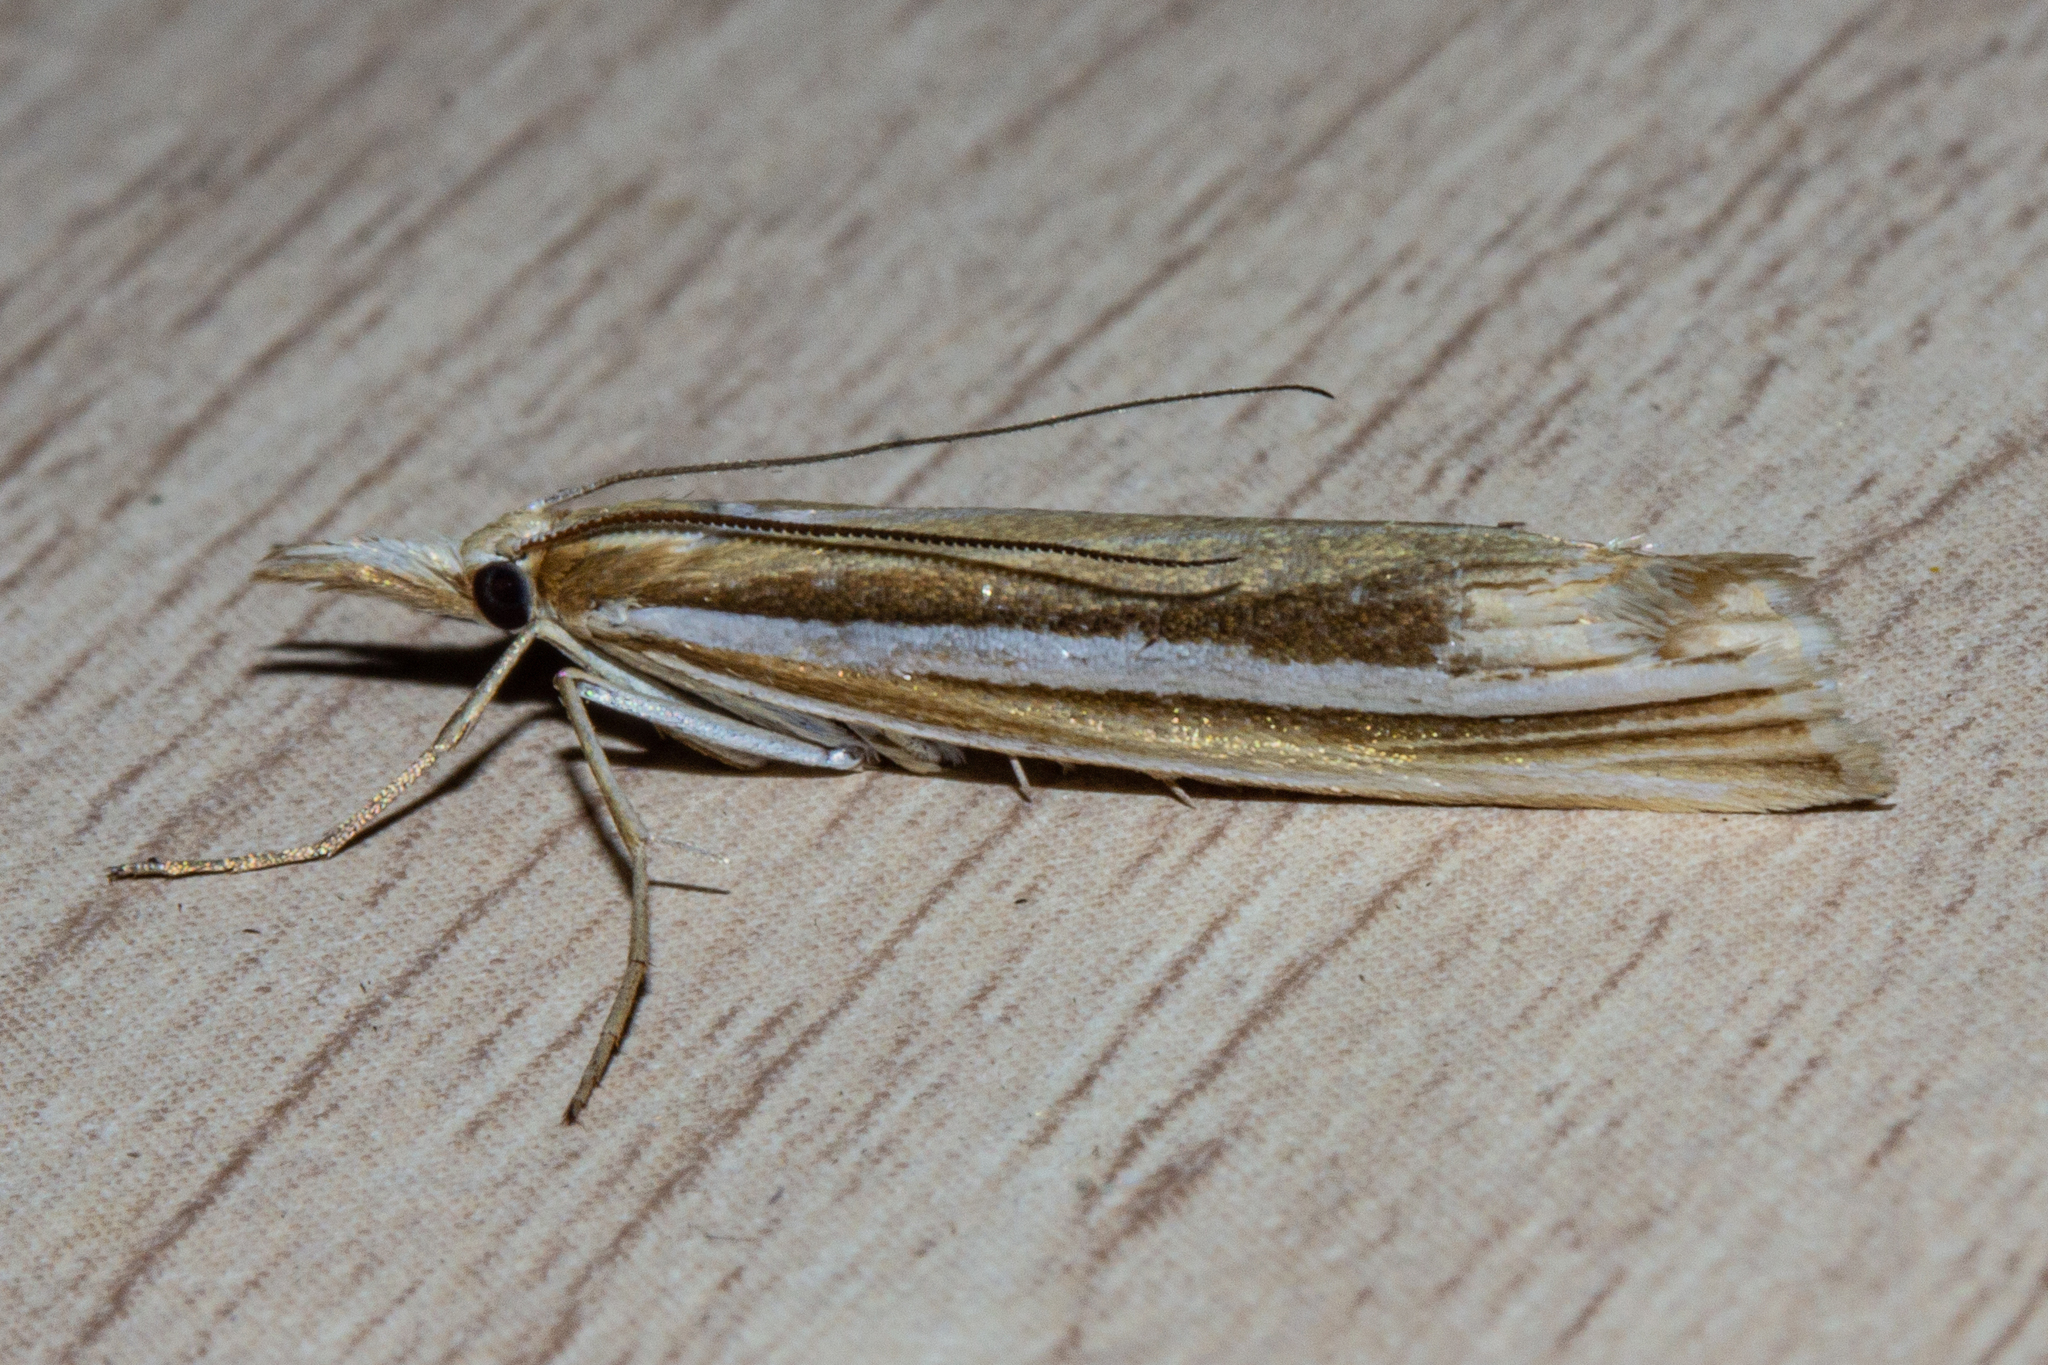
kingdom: Animalia
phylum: Arthropoda
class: Insecta
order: Lepidoptera
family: Crambidae
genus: Orocrambus
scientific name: Orocrambus ordishi
